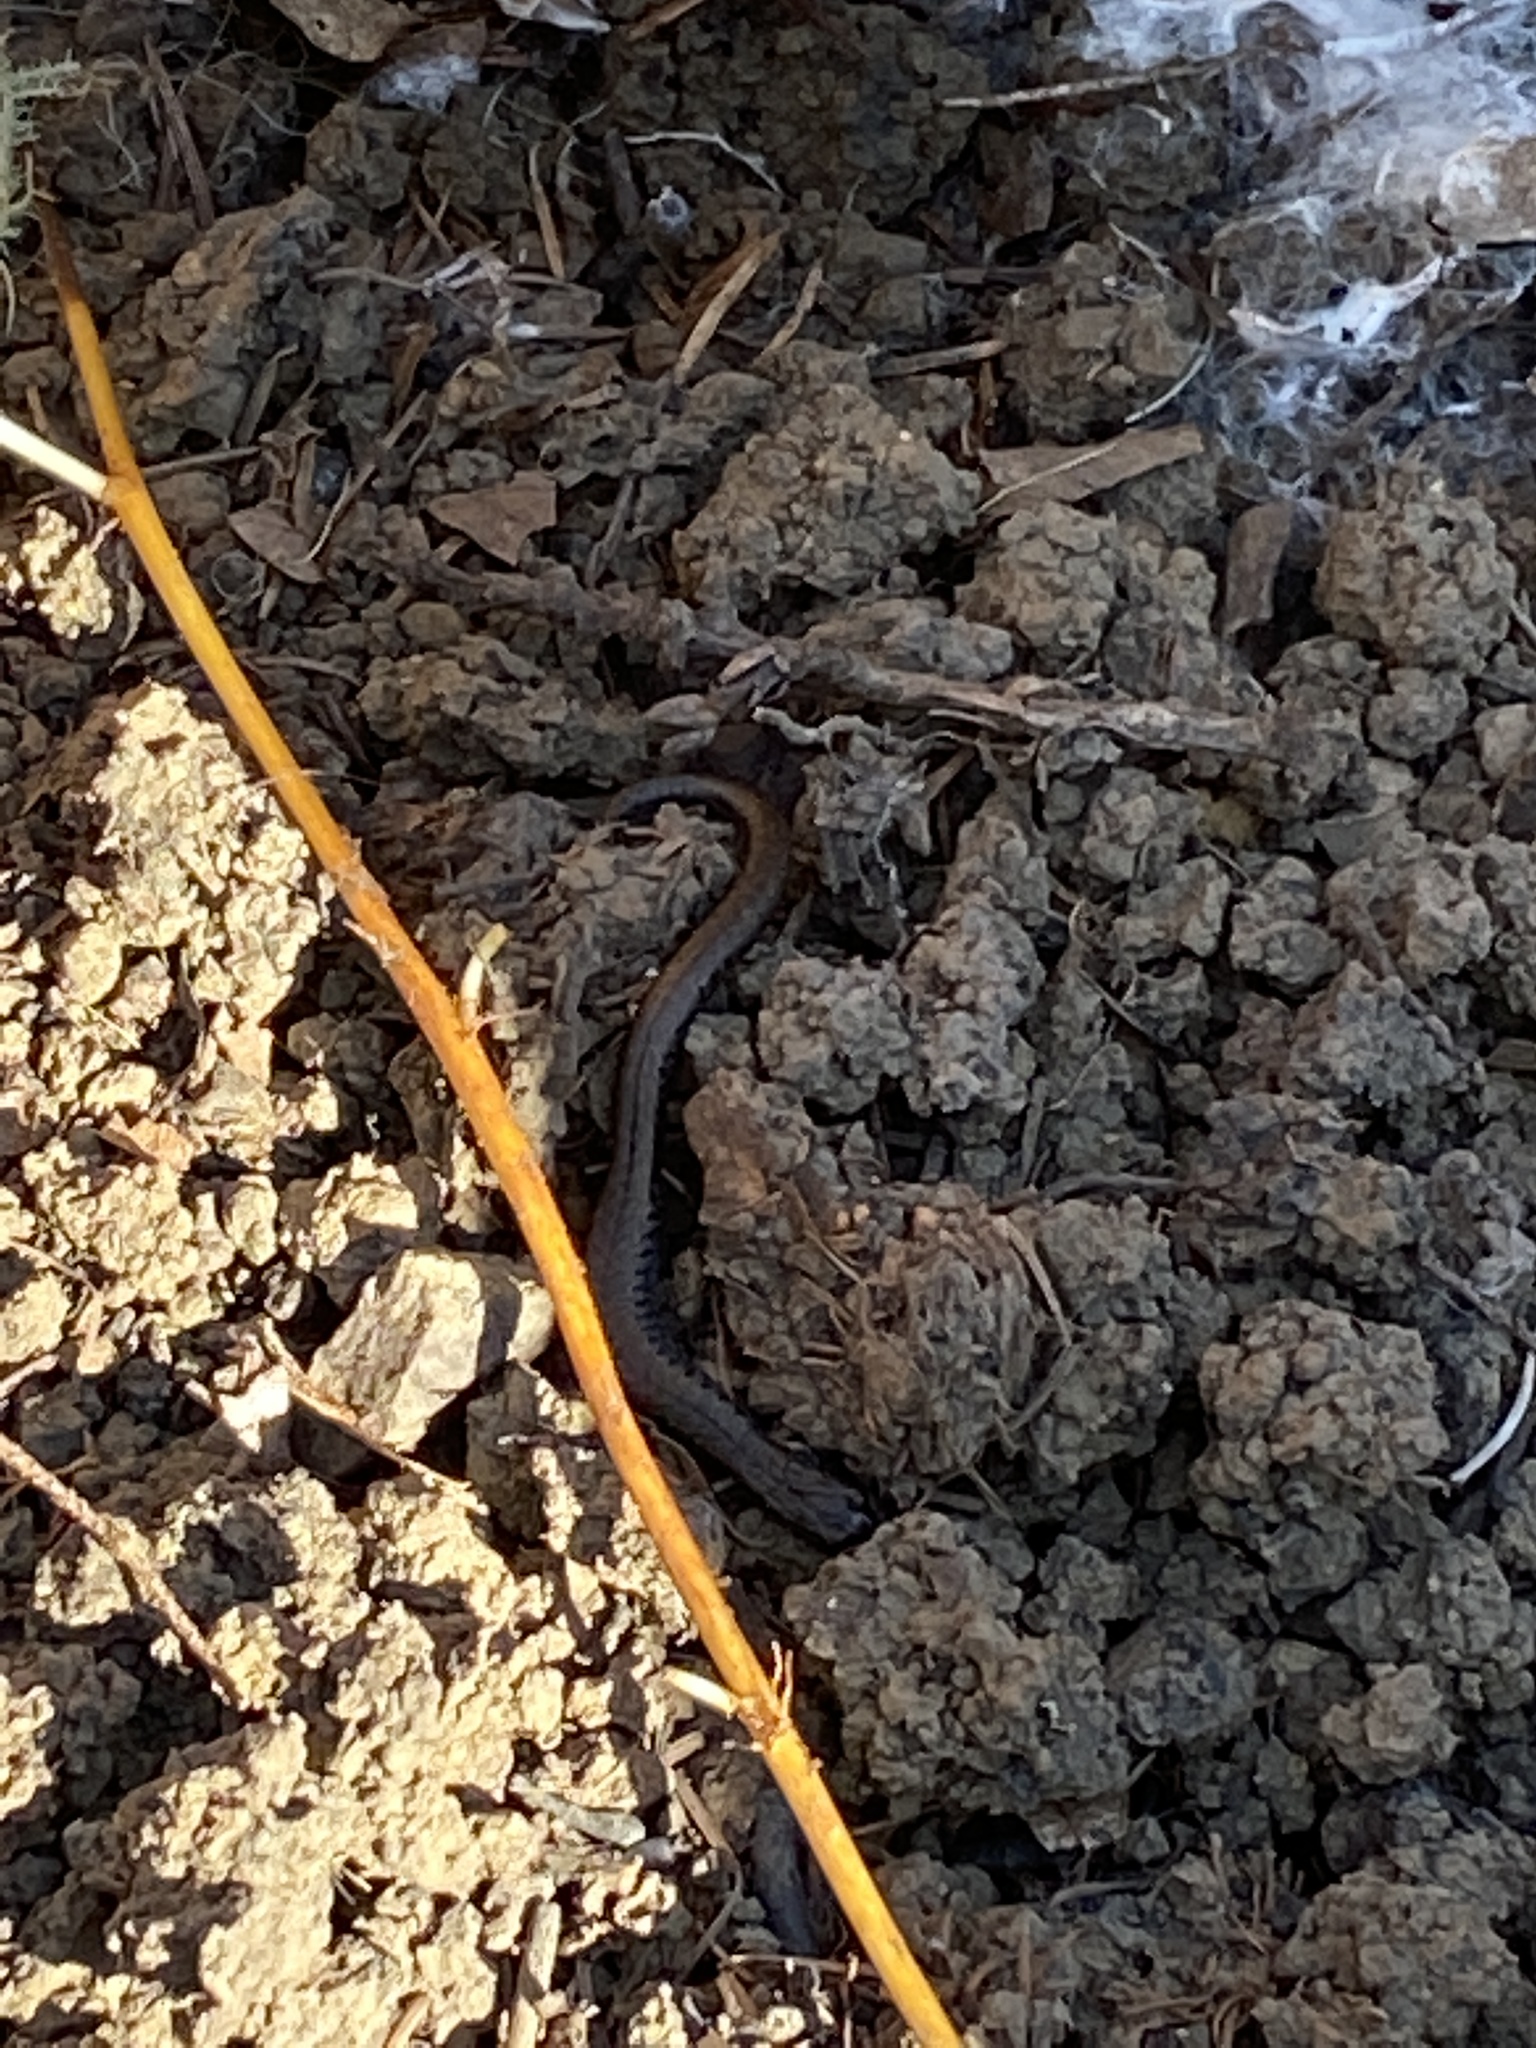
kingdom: Animalia
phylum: Chordata
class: Amphibia
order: Caudata
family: Plethodontidae
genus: Batrachoseps
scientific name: Batrachoseps attenuatus
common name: California slender salamander
